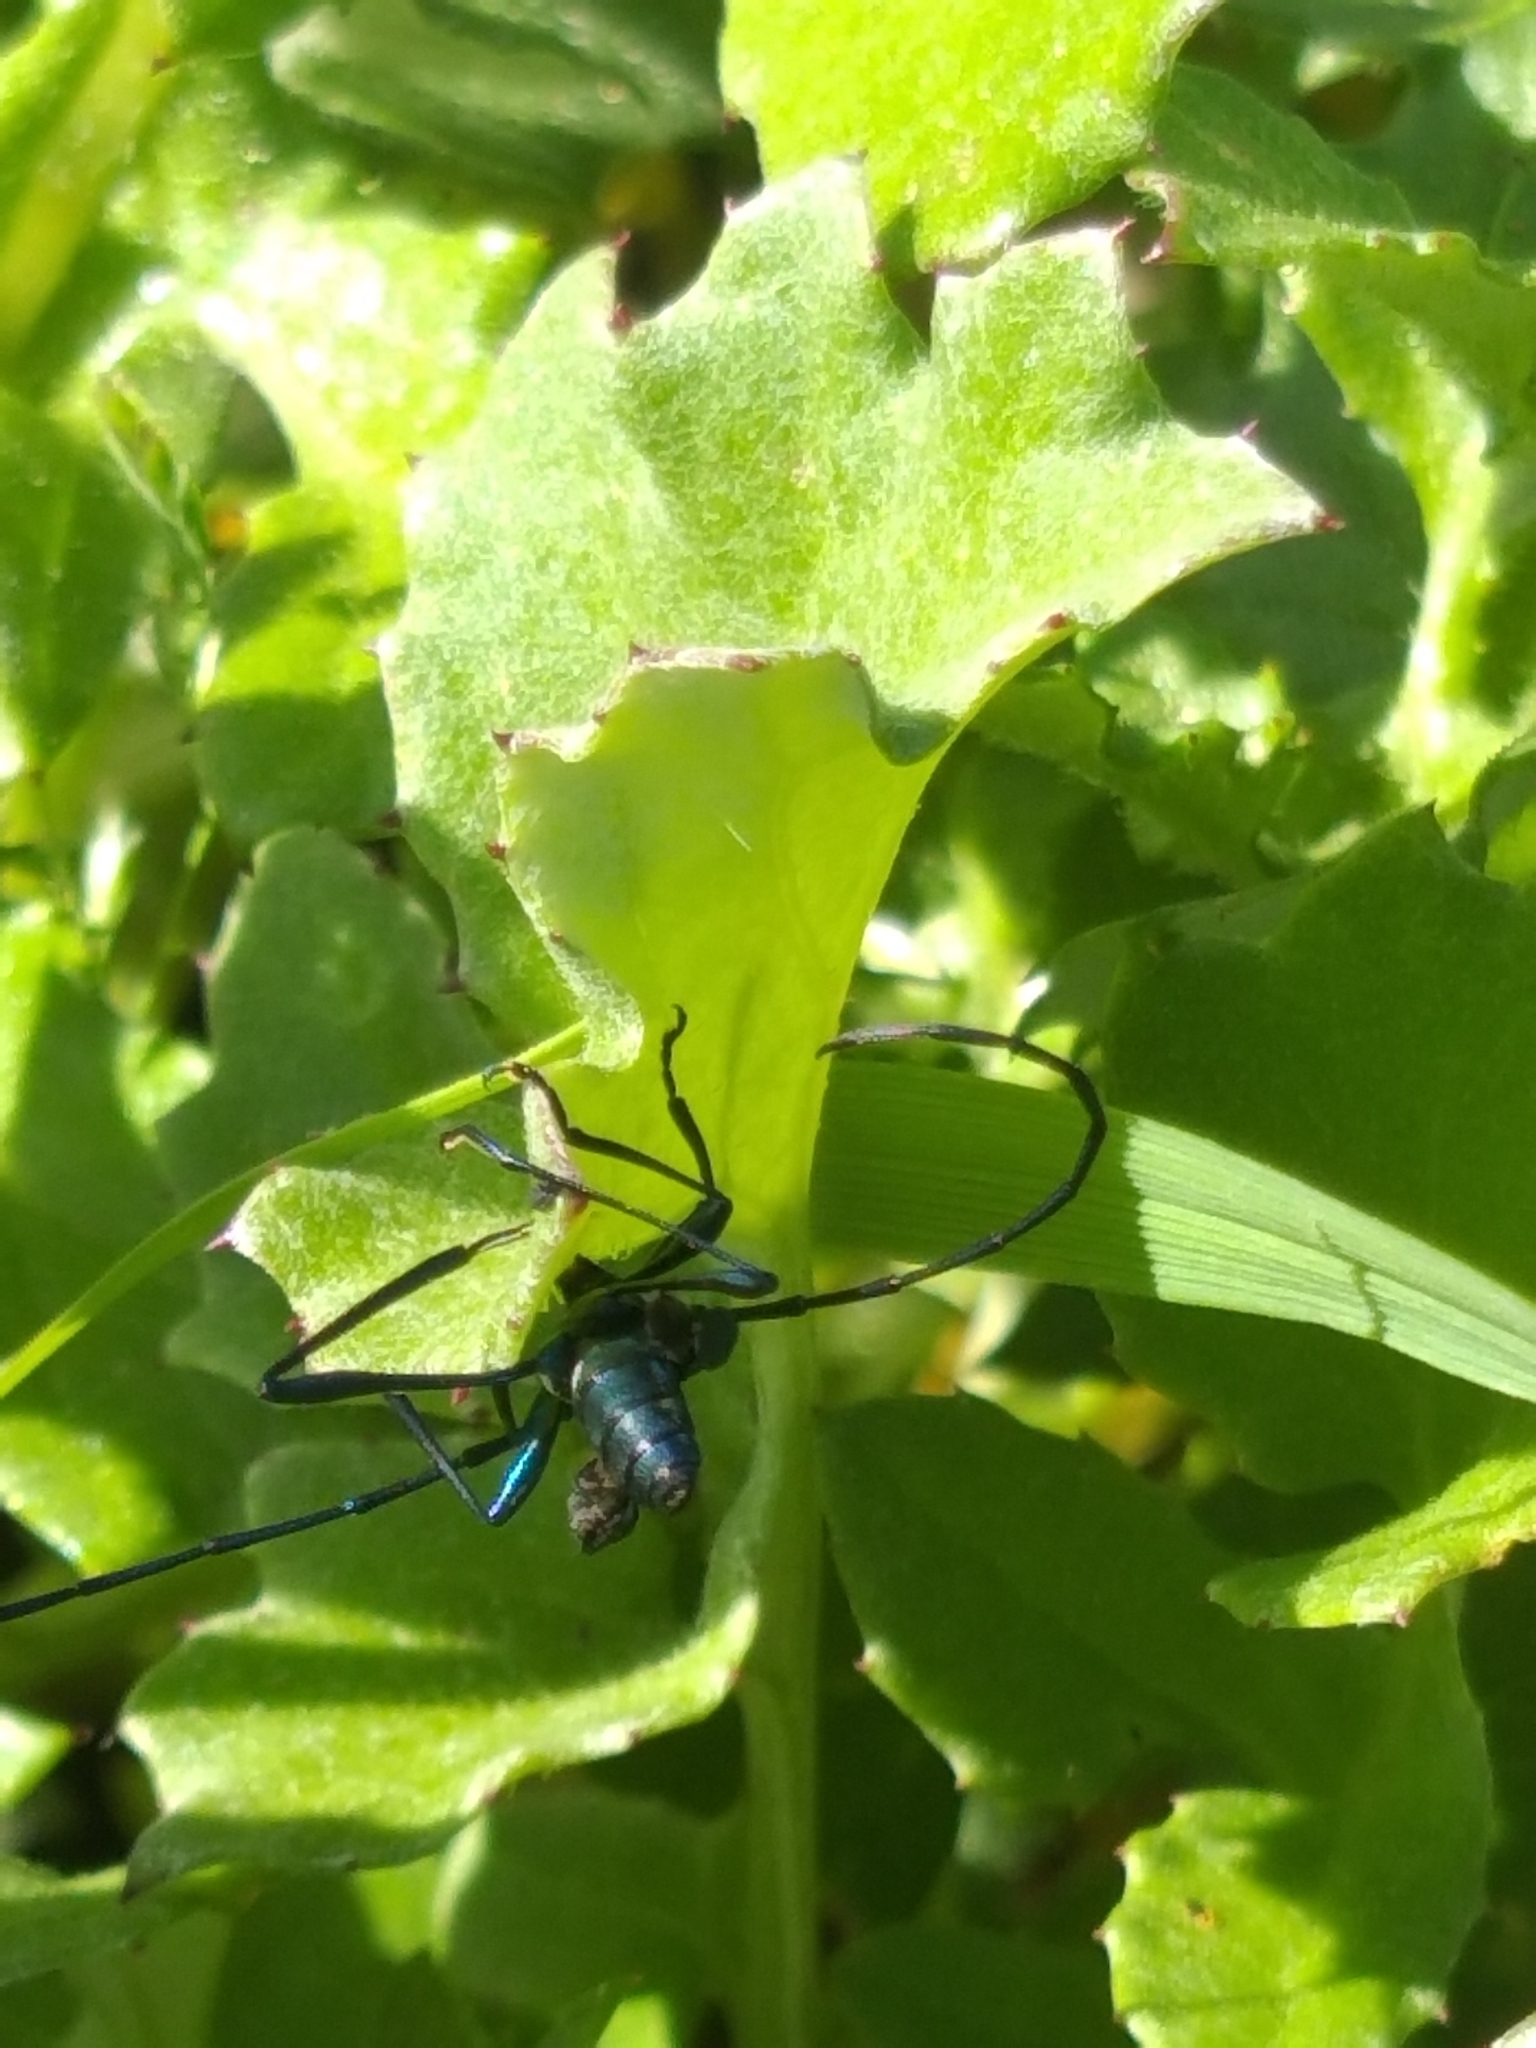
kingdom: Animalia
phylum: Arthropoda
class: Insecta
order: Coleoptera
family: Cerambycidae
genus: Promeces
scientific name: Promeces longipes
